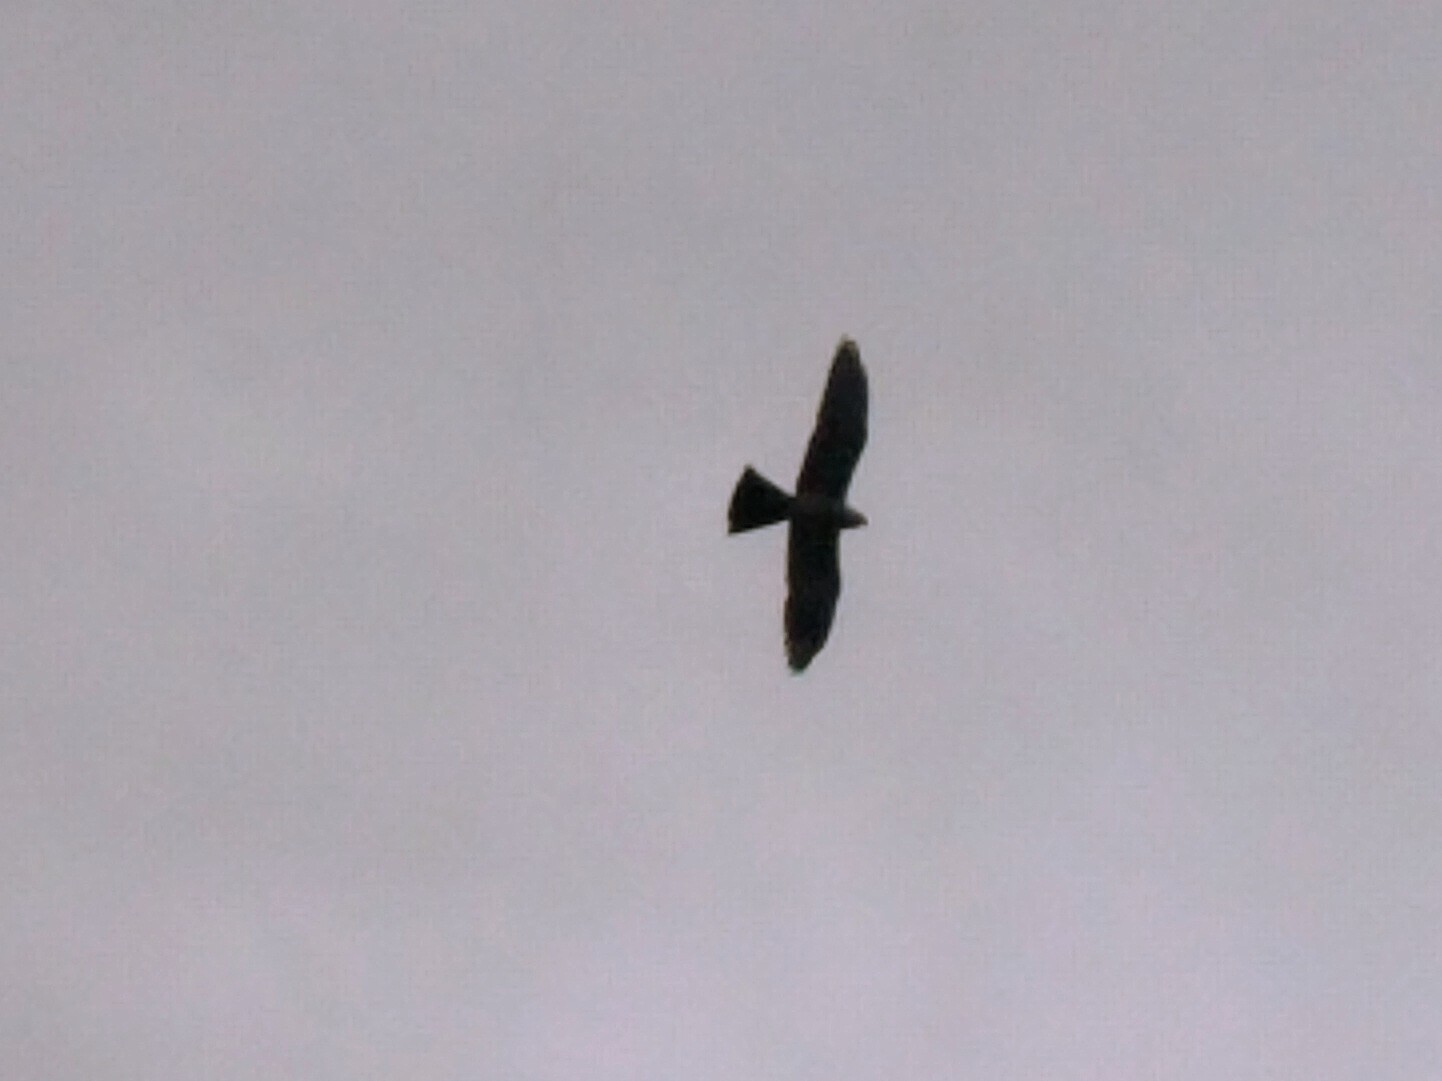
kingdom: Animalia
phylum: Chordata
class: Aves
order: Accipitriformes
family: Accipitridae
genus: Ictinia
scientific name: Ictinia mississippiensis
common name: Mississippi kite
